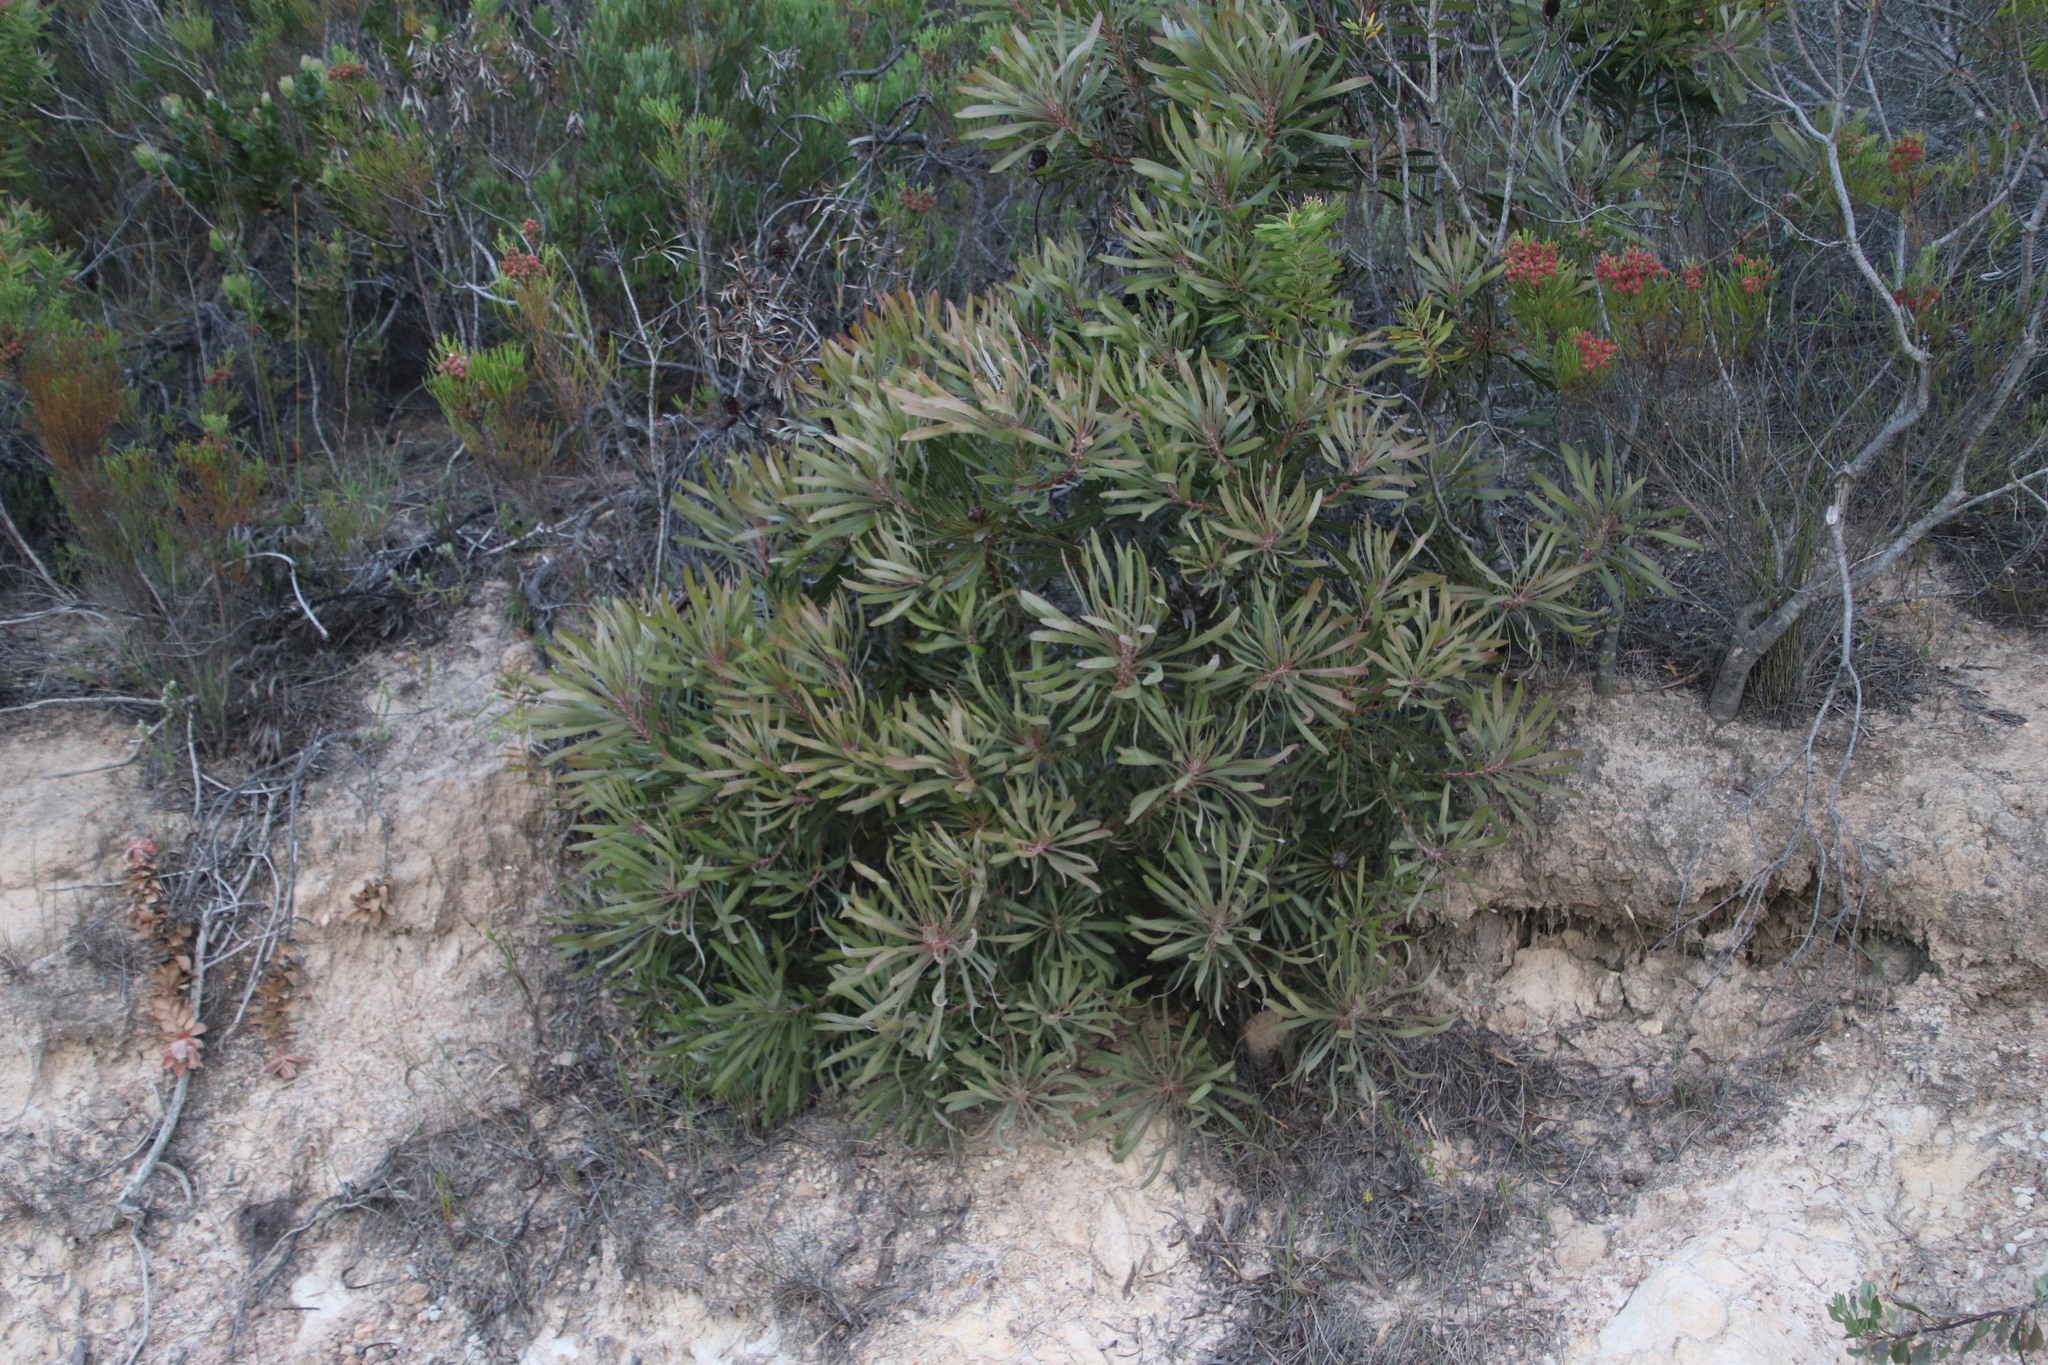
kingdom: Plantae
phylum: Tracheophyta
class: Magnoliopsida
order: Proteales
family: Proteaceae
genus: Protea
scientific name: Protea longifolia
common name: Long-leaf sugarbush
